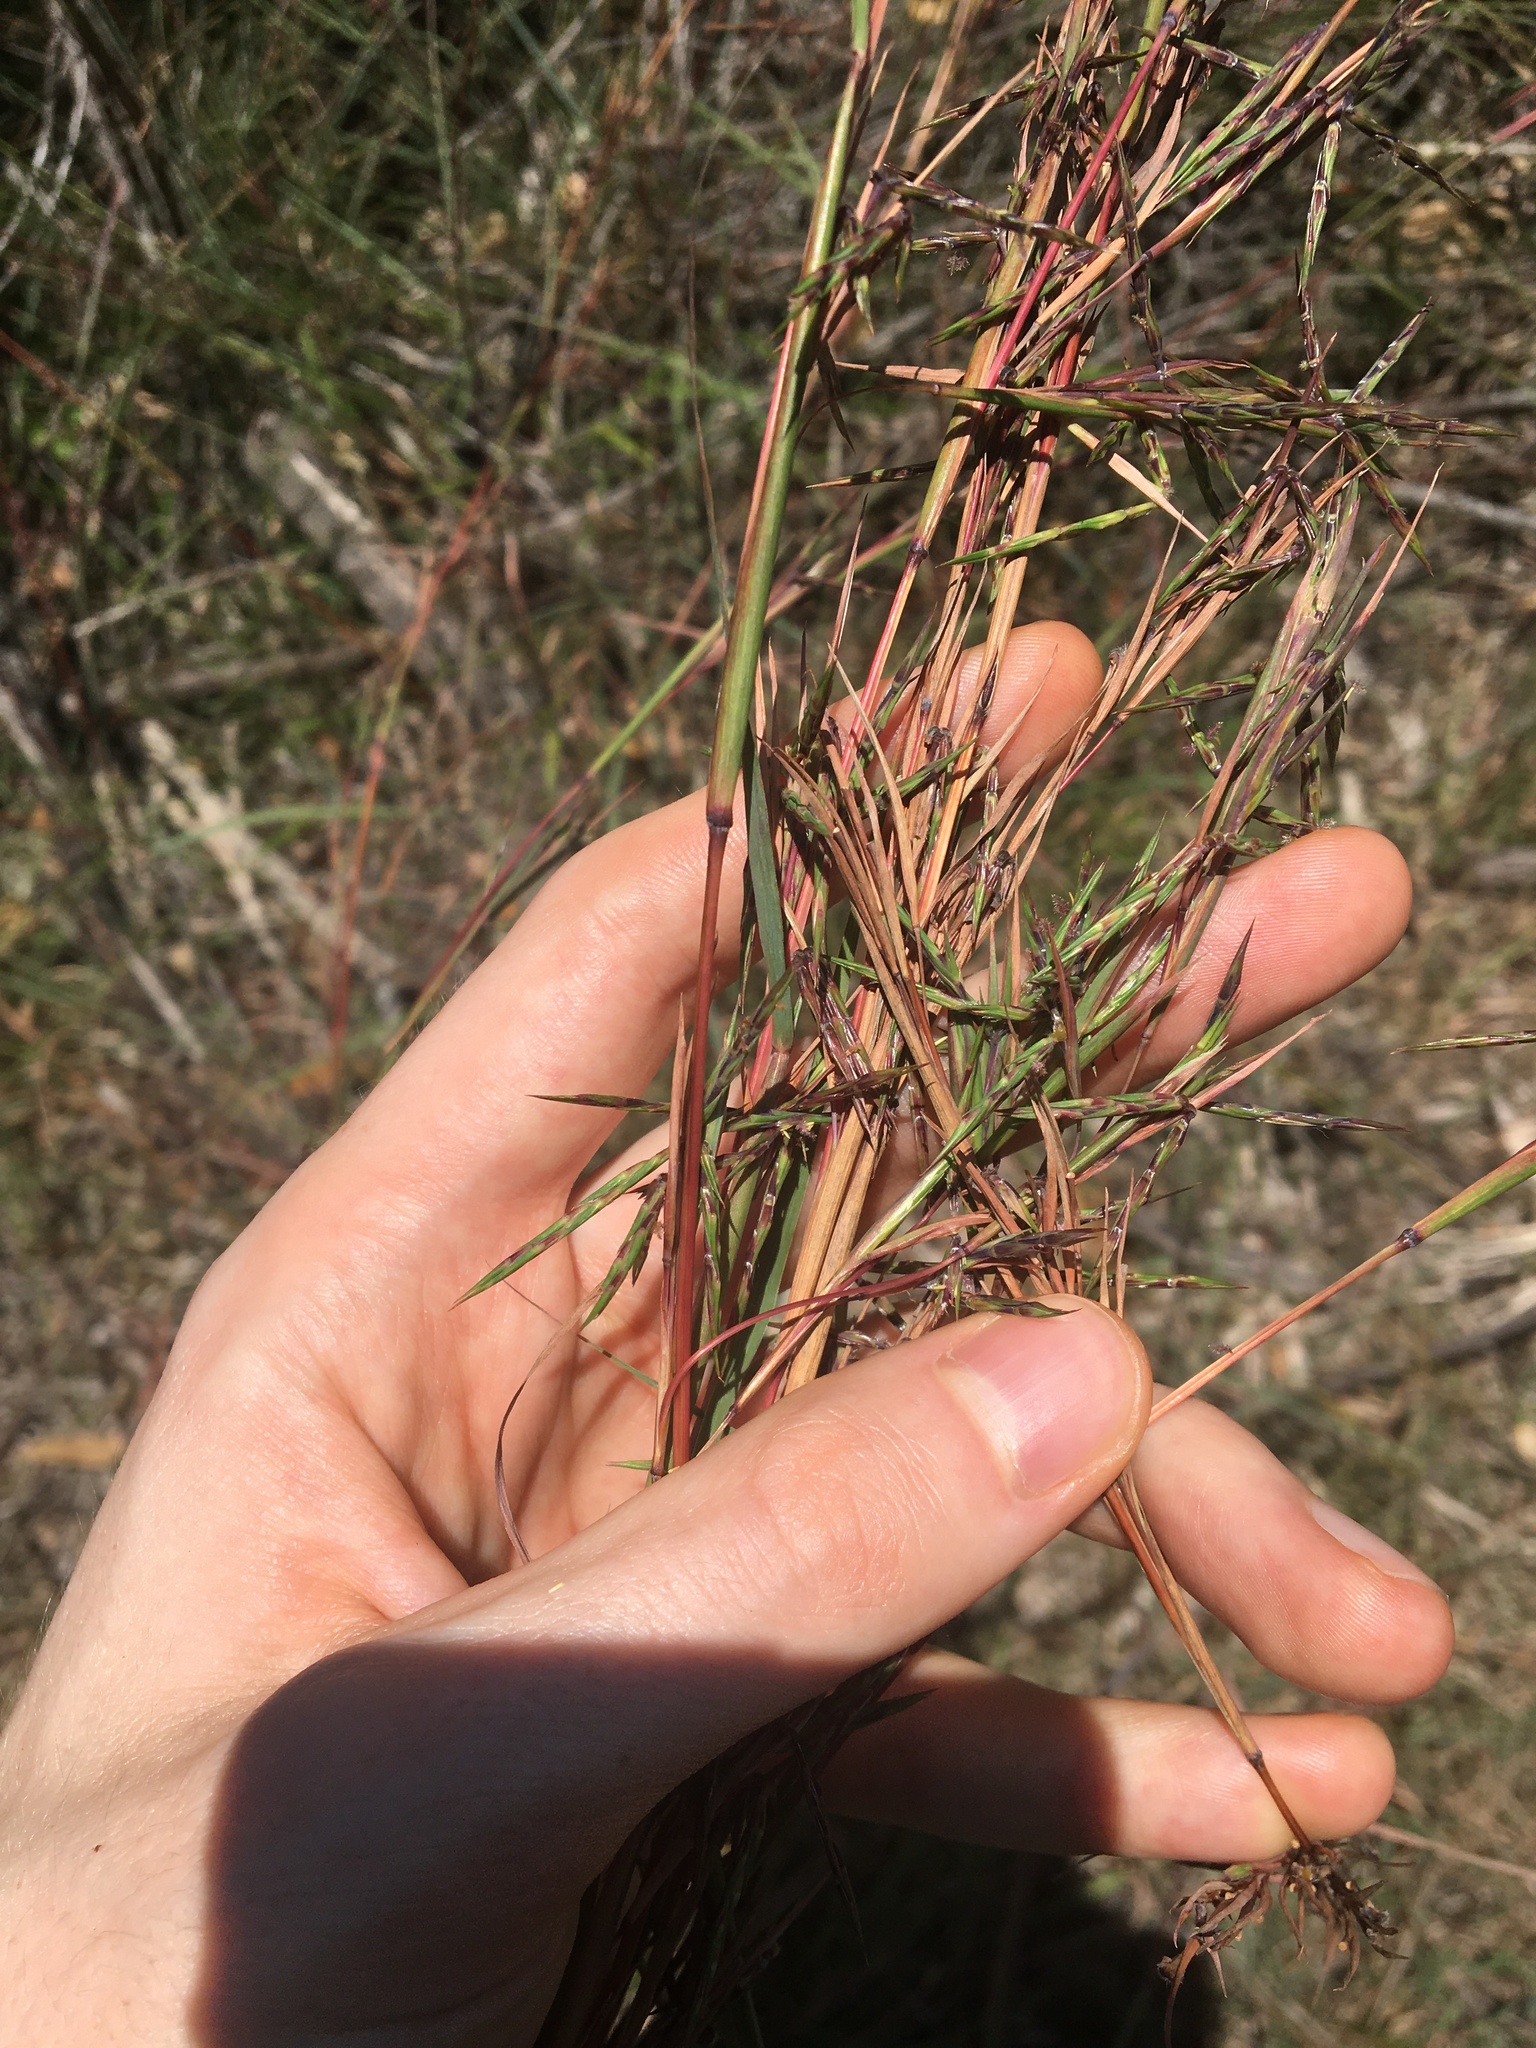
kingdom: Plantae
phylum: Tracheophyta
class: Liliopsida
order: Poales
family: Poaceae
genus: Cymbopogon
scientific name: Cymbopogon refractus
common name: Barbwire grass
